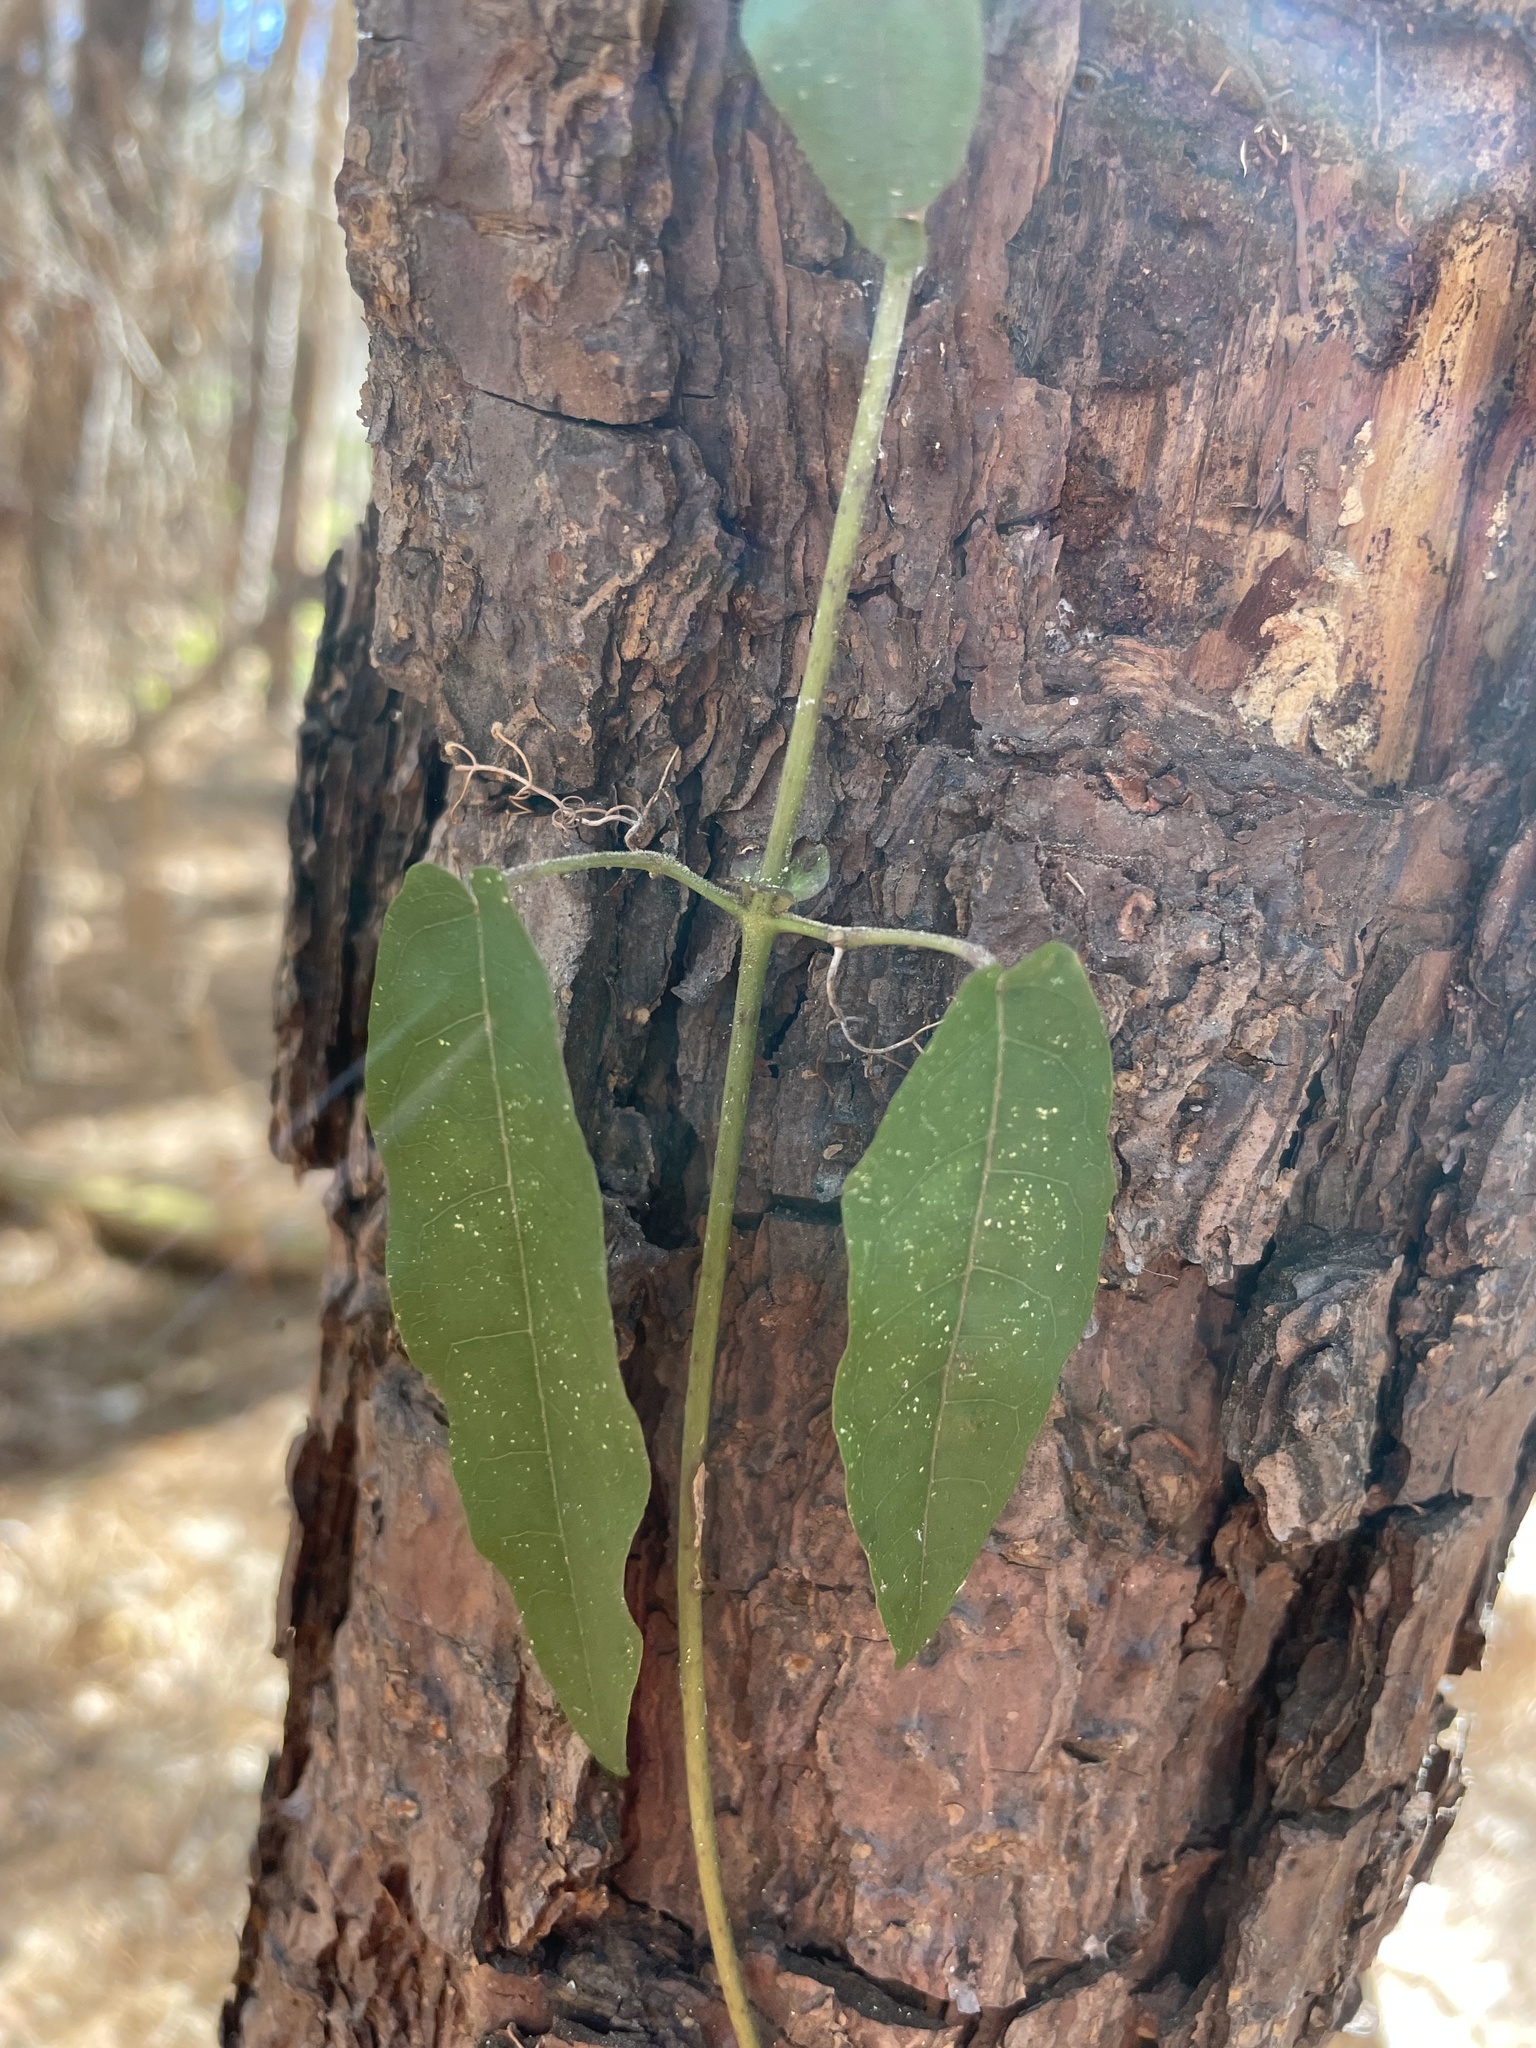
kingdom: Plantae
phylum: Tracheophyta
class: Magnoliopsida
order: Lamiales
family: Bignoniaceae
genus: Bignonia
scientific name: Bignonia capreolata
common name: Crossvine
